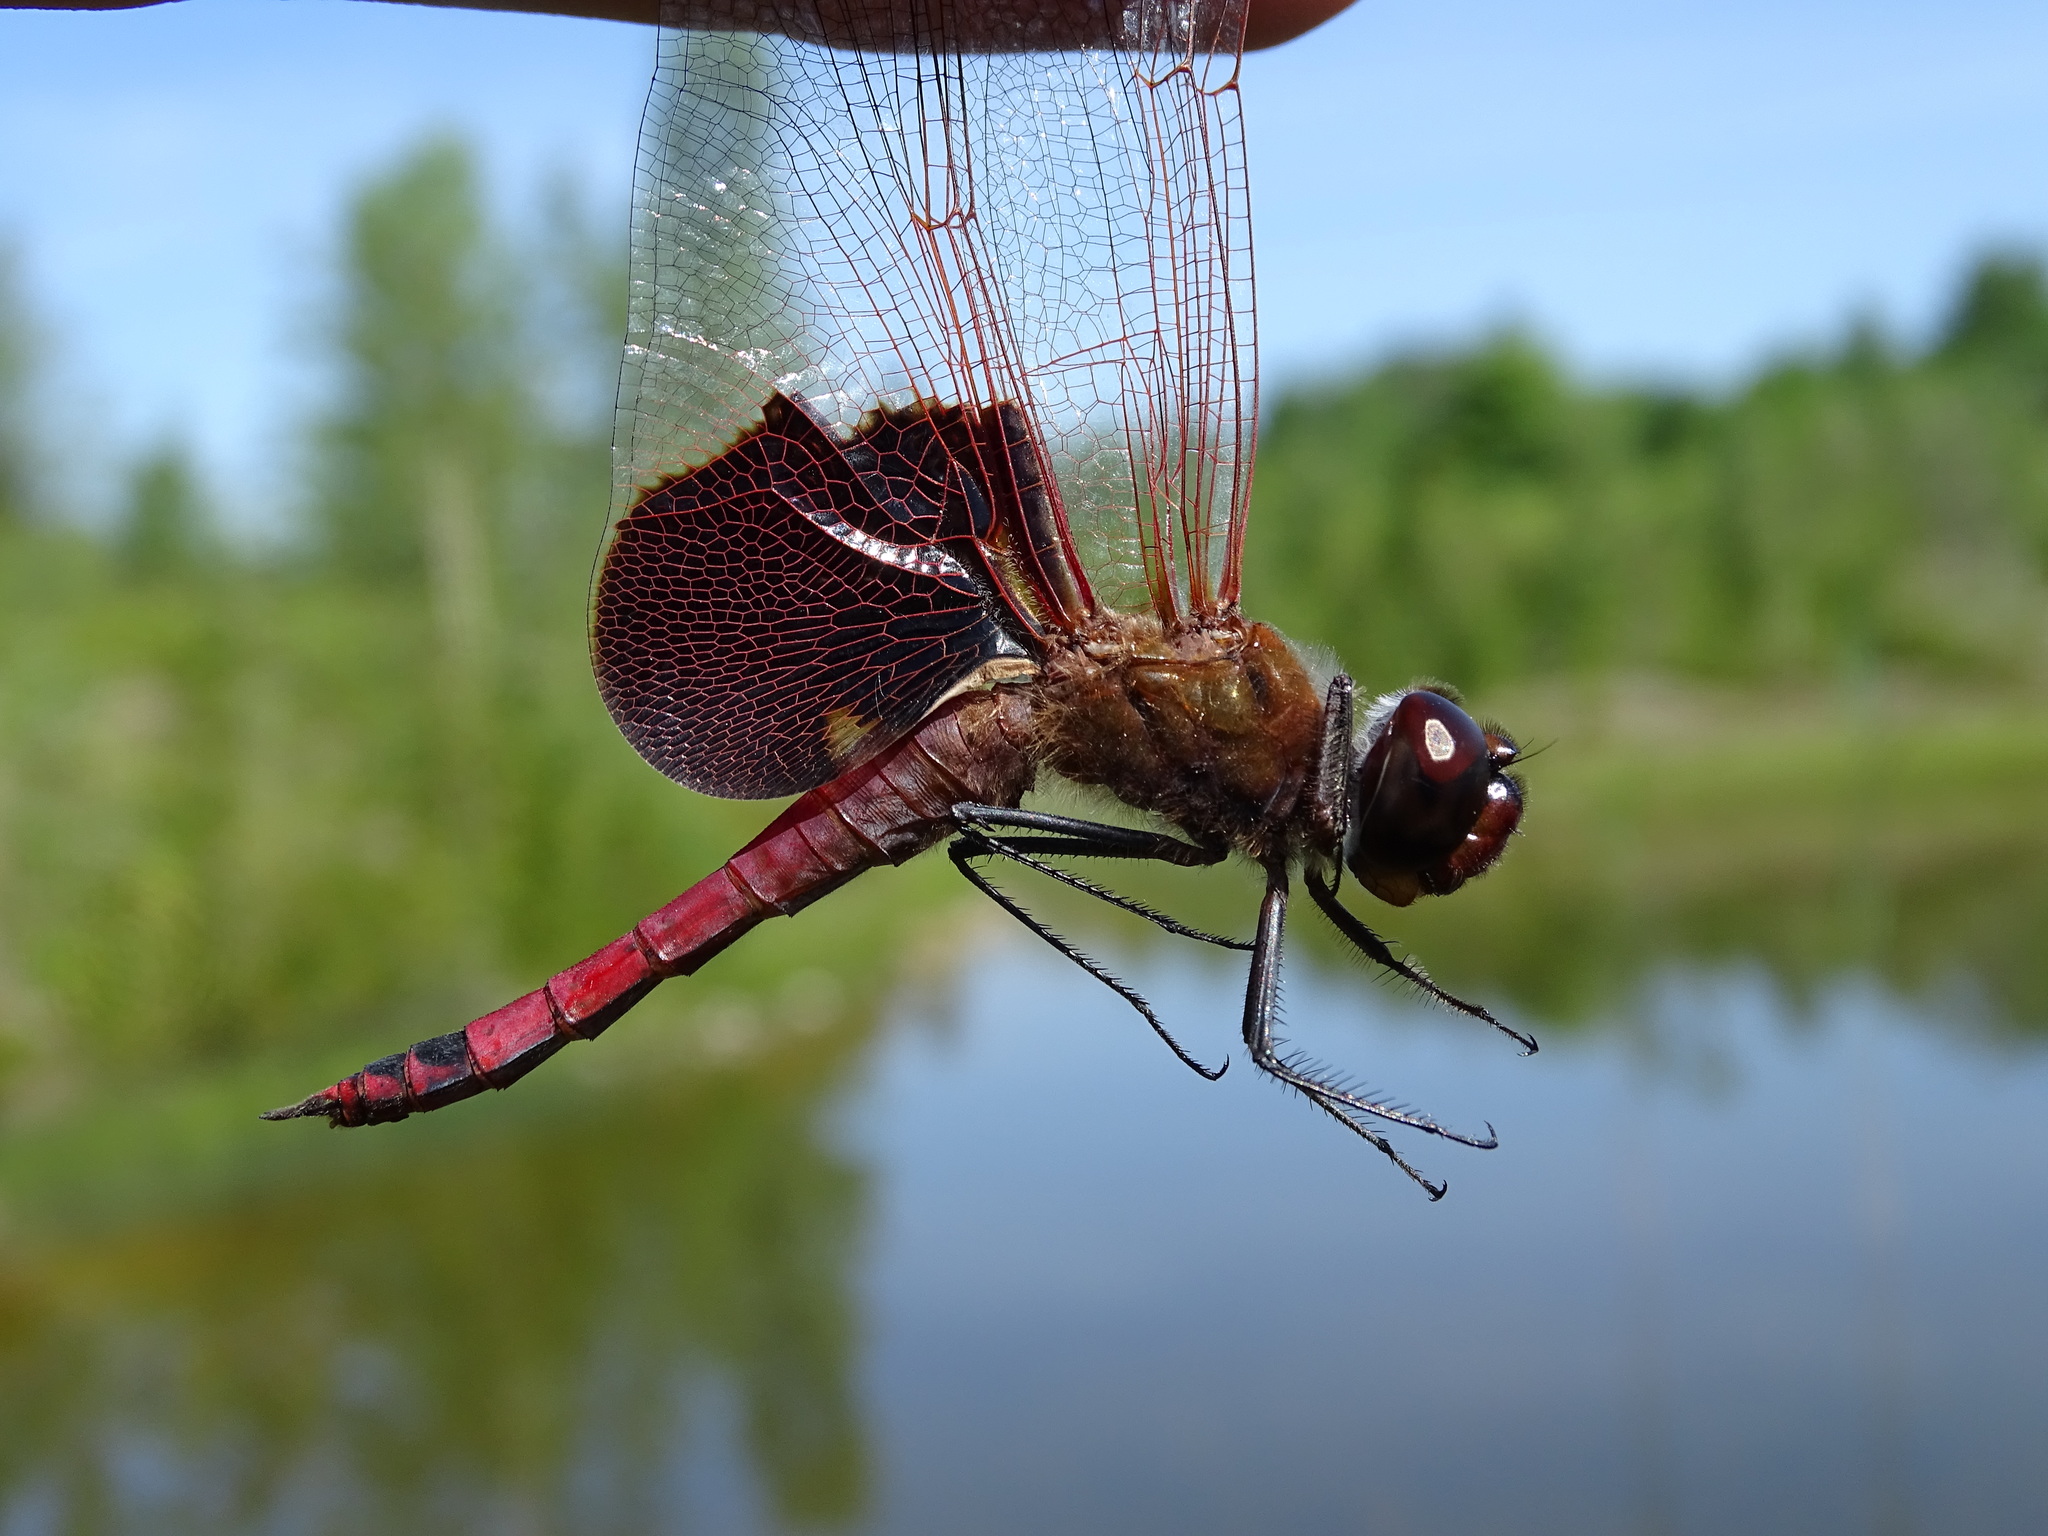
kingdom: Animalia
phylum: Arthropoda
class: Insecta
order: Odonata
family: Libellulidae
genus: Tramea
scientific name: Tramea carolina
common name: Carolina saddlebags
